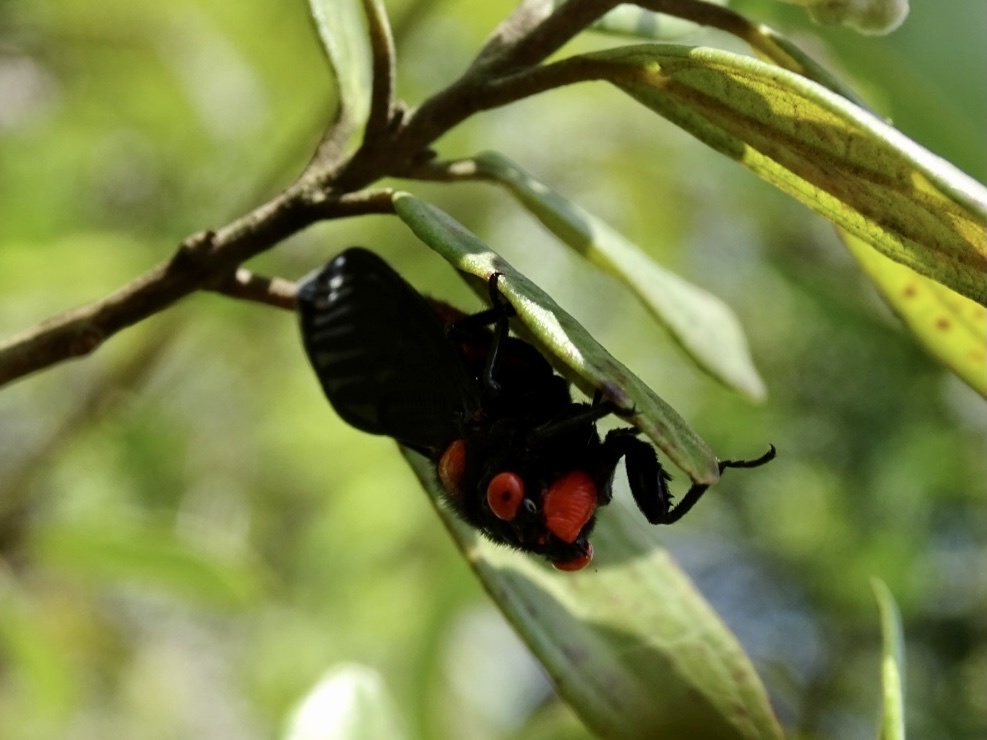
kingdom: Animalia
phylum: Arthropoda
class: Insecta
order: Hemiptera
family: Cicadidae
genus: Huechys
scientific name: Huechys sanguinea
